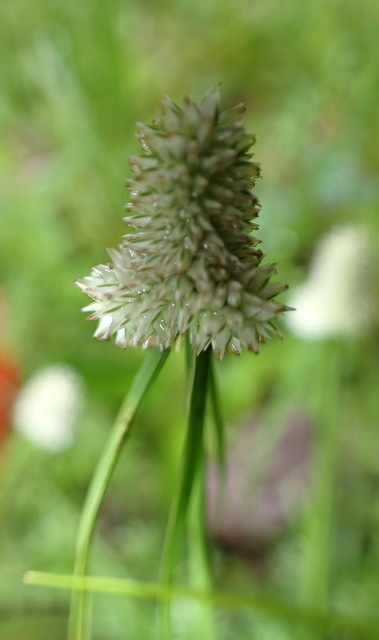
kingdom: Plantae
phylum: Tracheophyta
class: Liliopsida
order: Poales
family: Cyperaceae
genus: Cyperus
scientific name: Cyperus sesquiflorus
